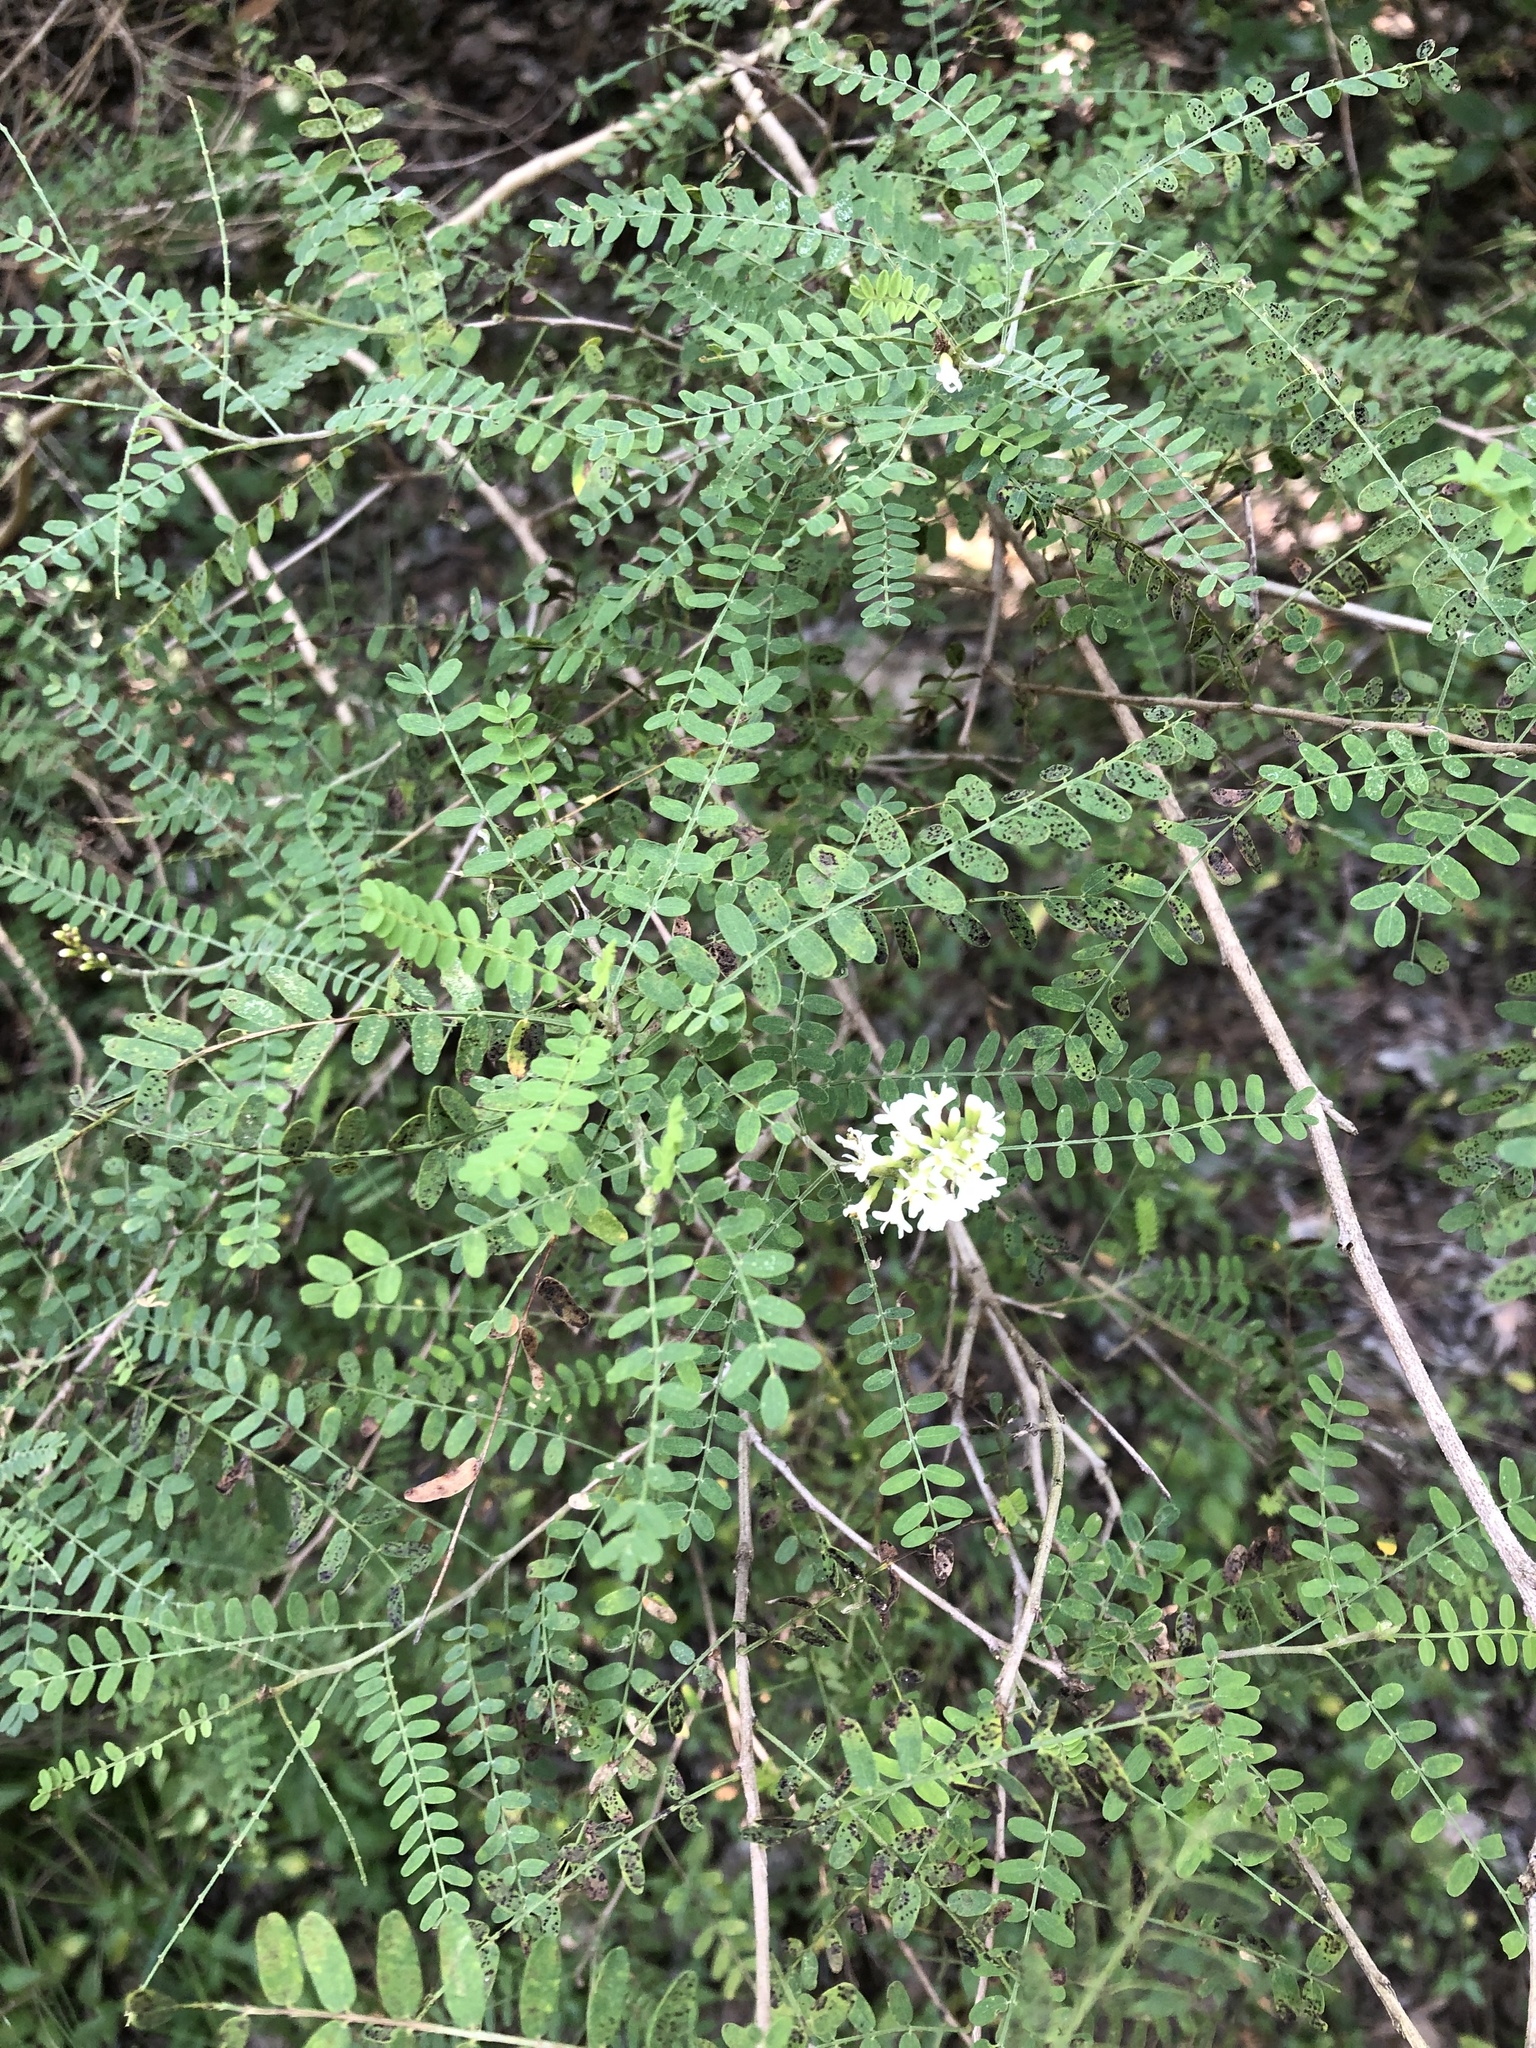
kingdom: Plantae
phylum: Tracheophyta
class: Magnoliopsida
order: Fabales
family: Fabaceae
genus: Eysenhardtia
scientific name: Eysenhardtia texana
